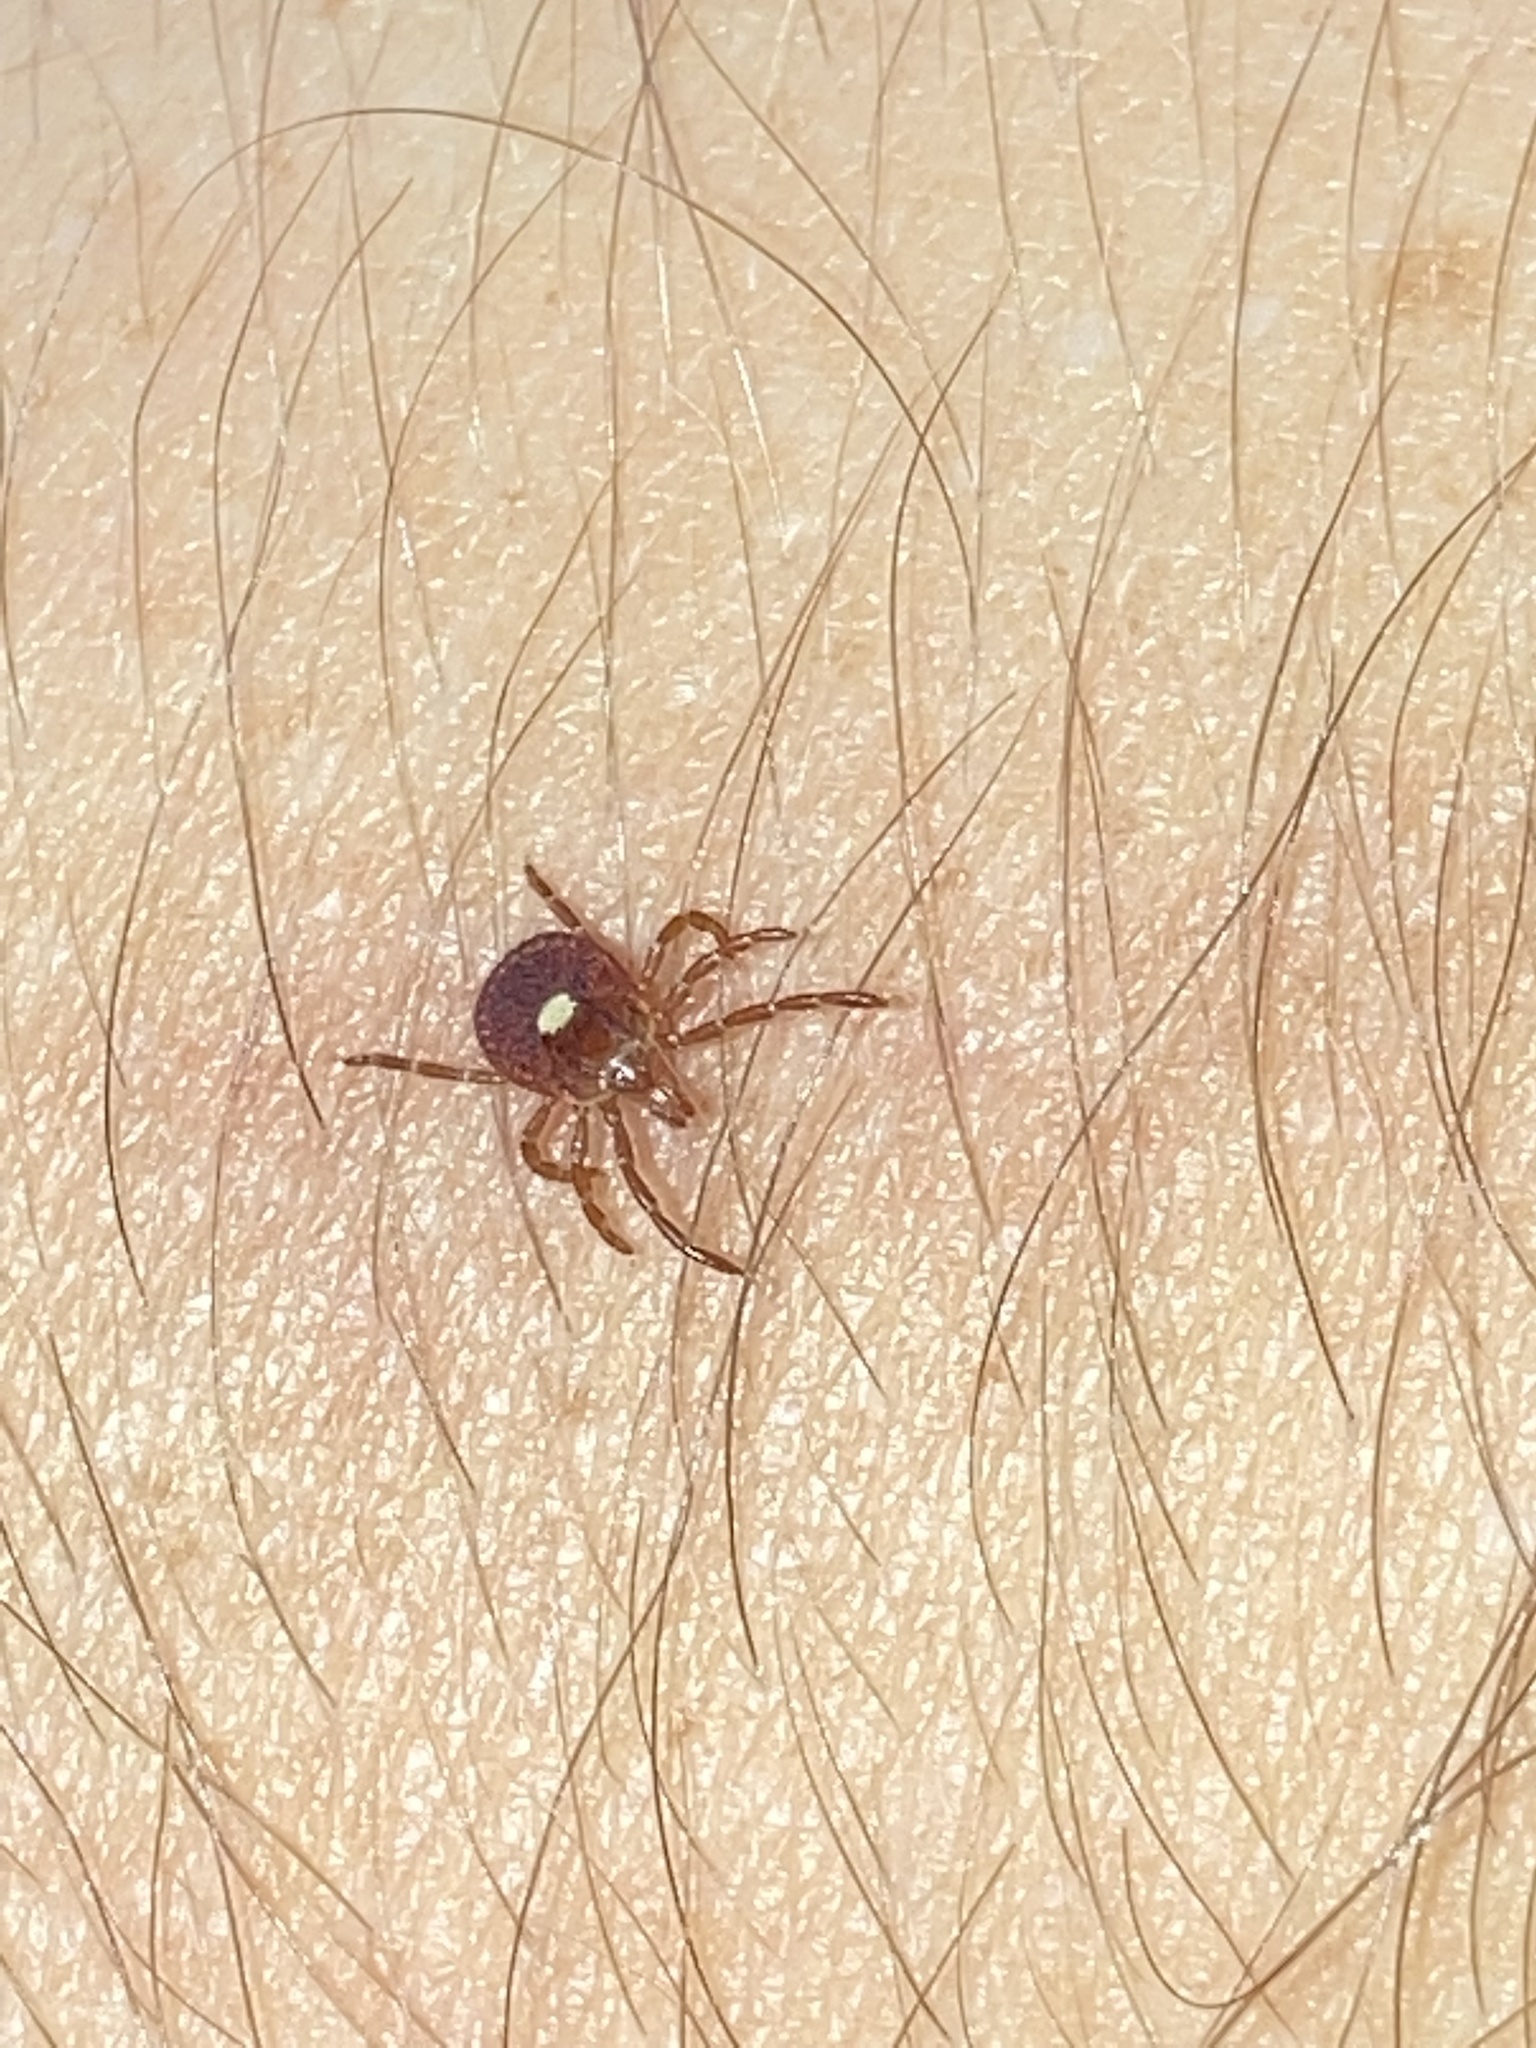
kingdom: Animalia
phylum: Arthropoda
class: Arachnida
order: Ixodida
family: Ixodidae
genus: Amblyomma
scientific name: Amblyomma americanum
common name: Lone star tick
